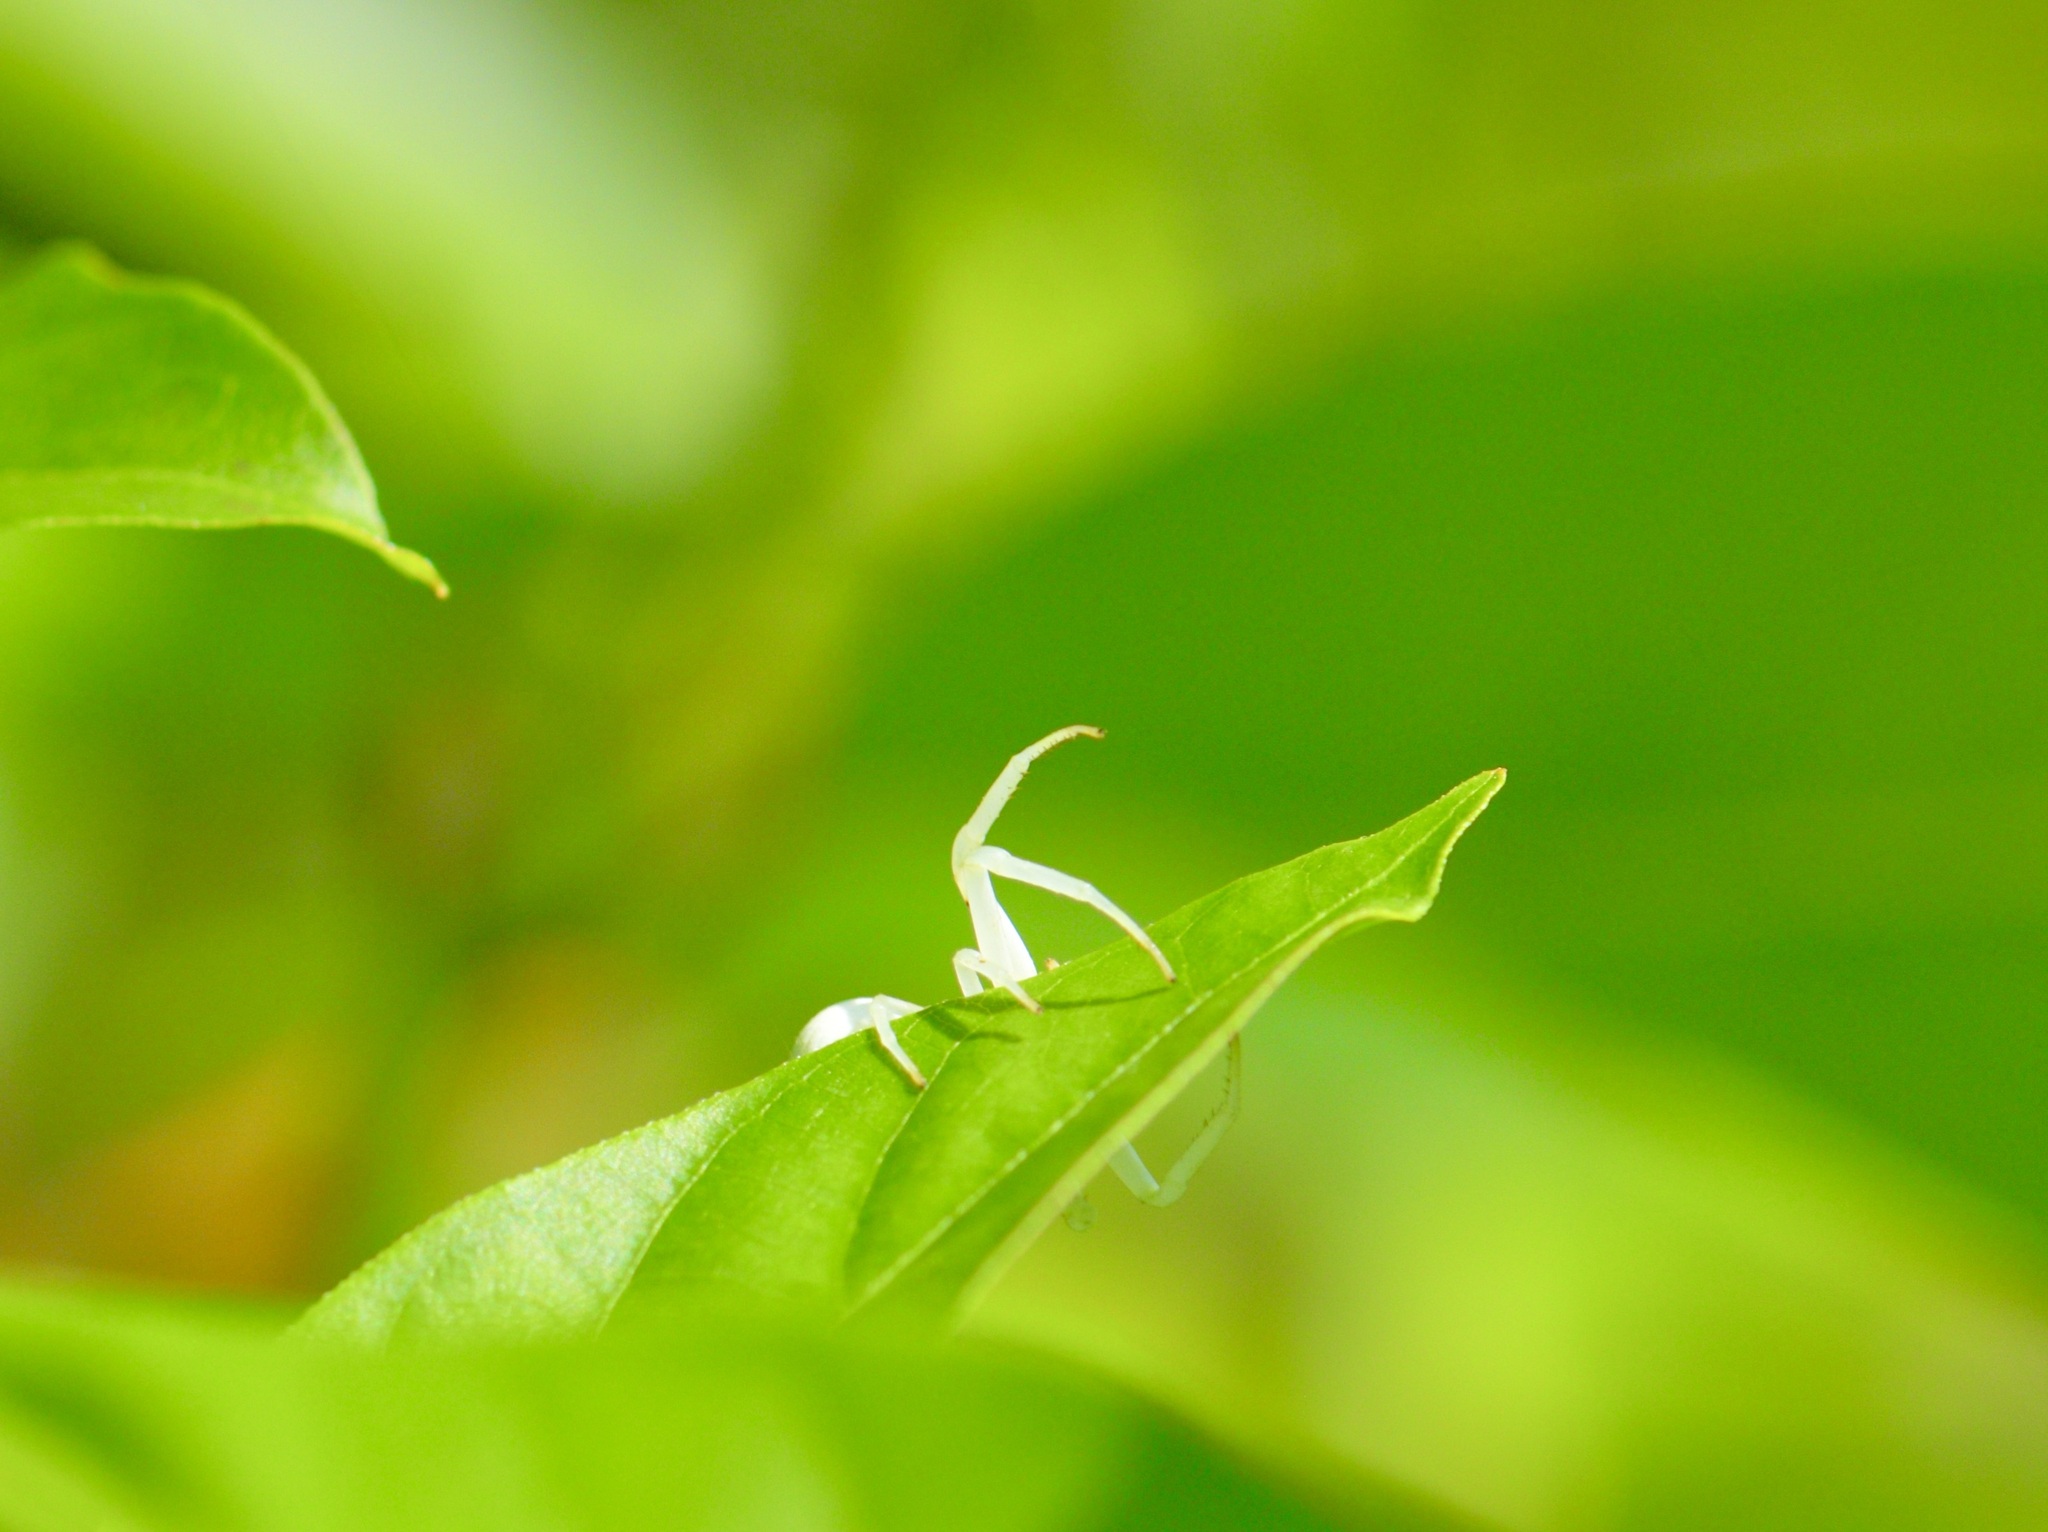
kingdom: Animalia
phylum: Arthropoda
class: Arachnida
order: Araneae
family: Thomisidae
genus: Misumena
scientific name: Misumena vatia
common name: Goldenrod crab spider
